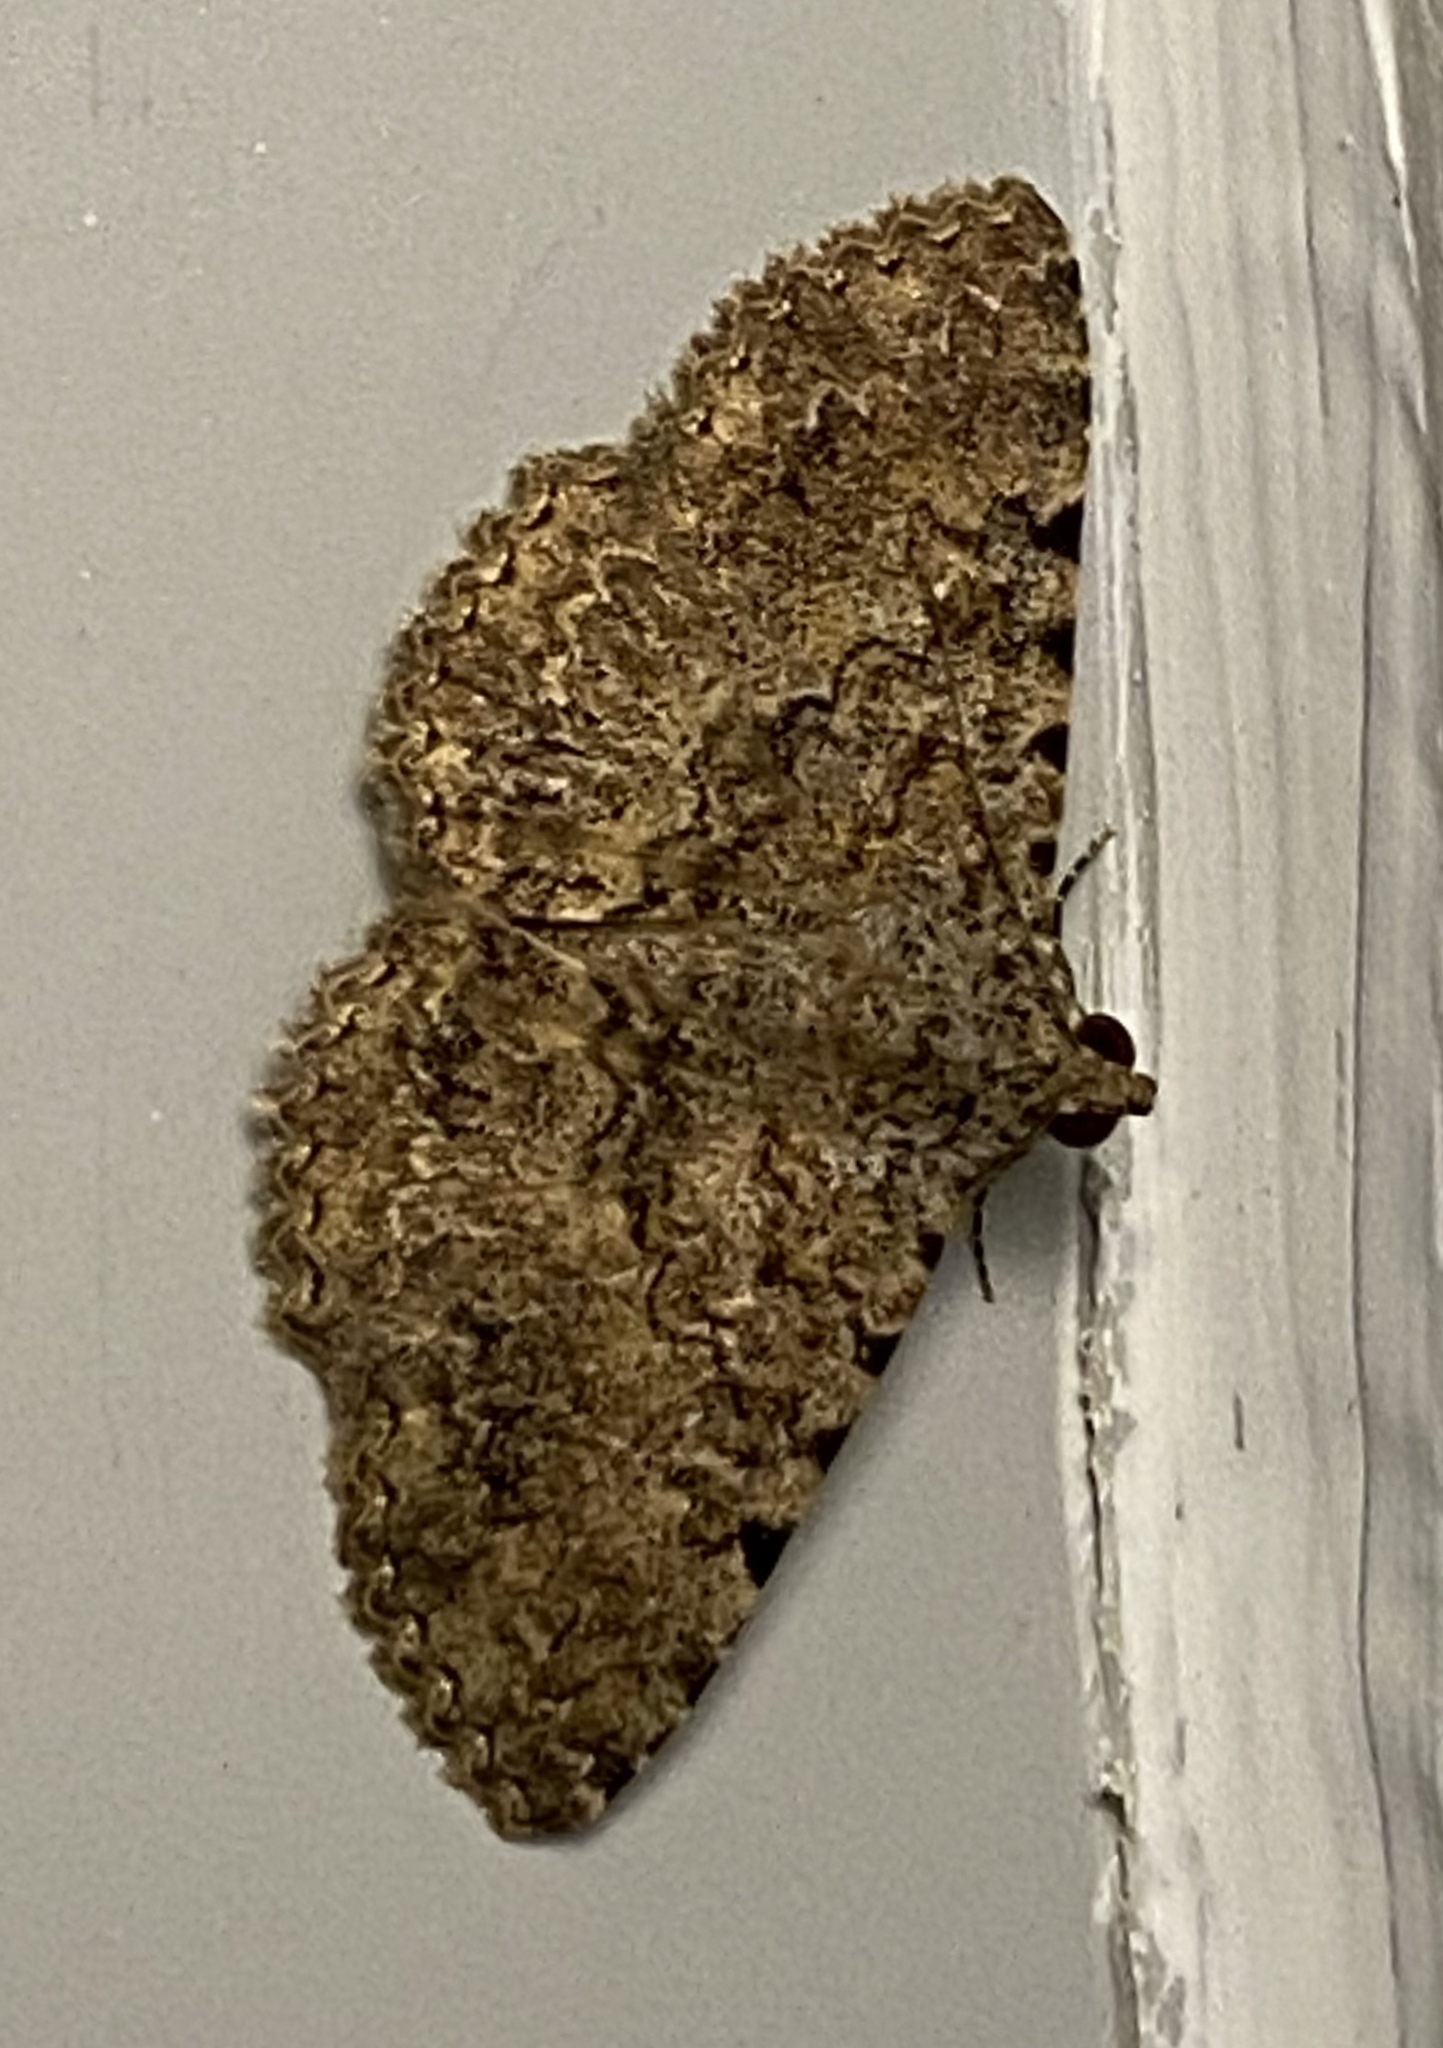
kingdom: Animalia
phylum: Arthropoda
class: Insecta
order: Lepidoptera
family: Erebidae
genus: Polydesma
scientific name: Polydesma umbricola
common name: Monkeypod moth
